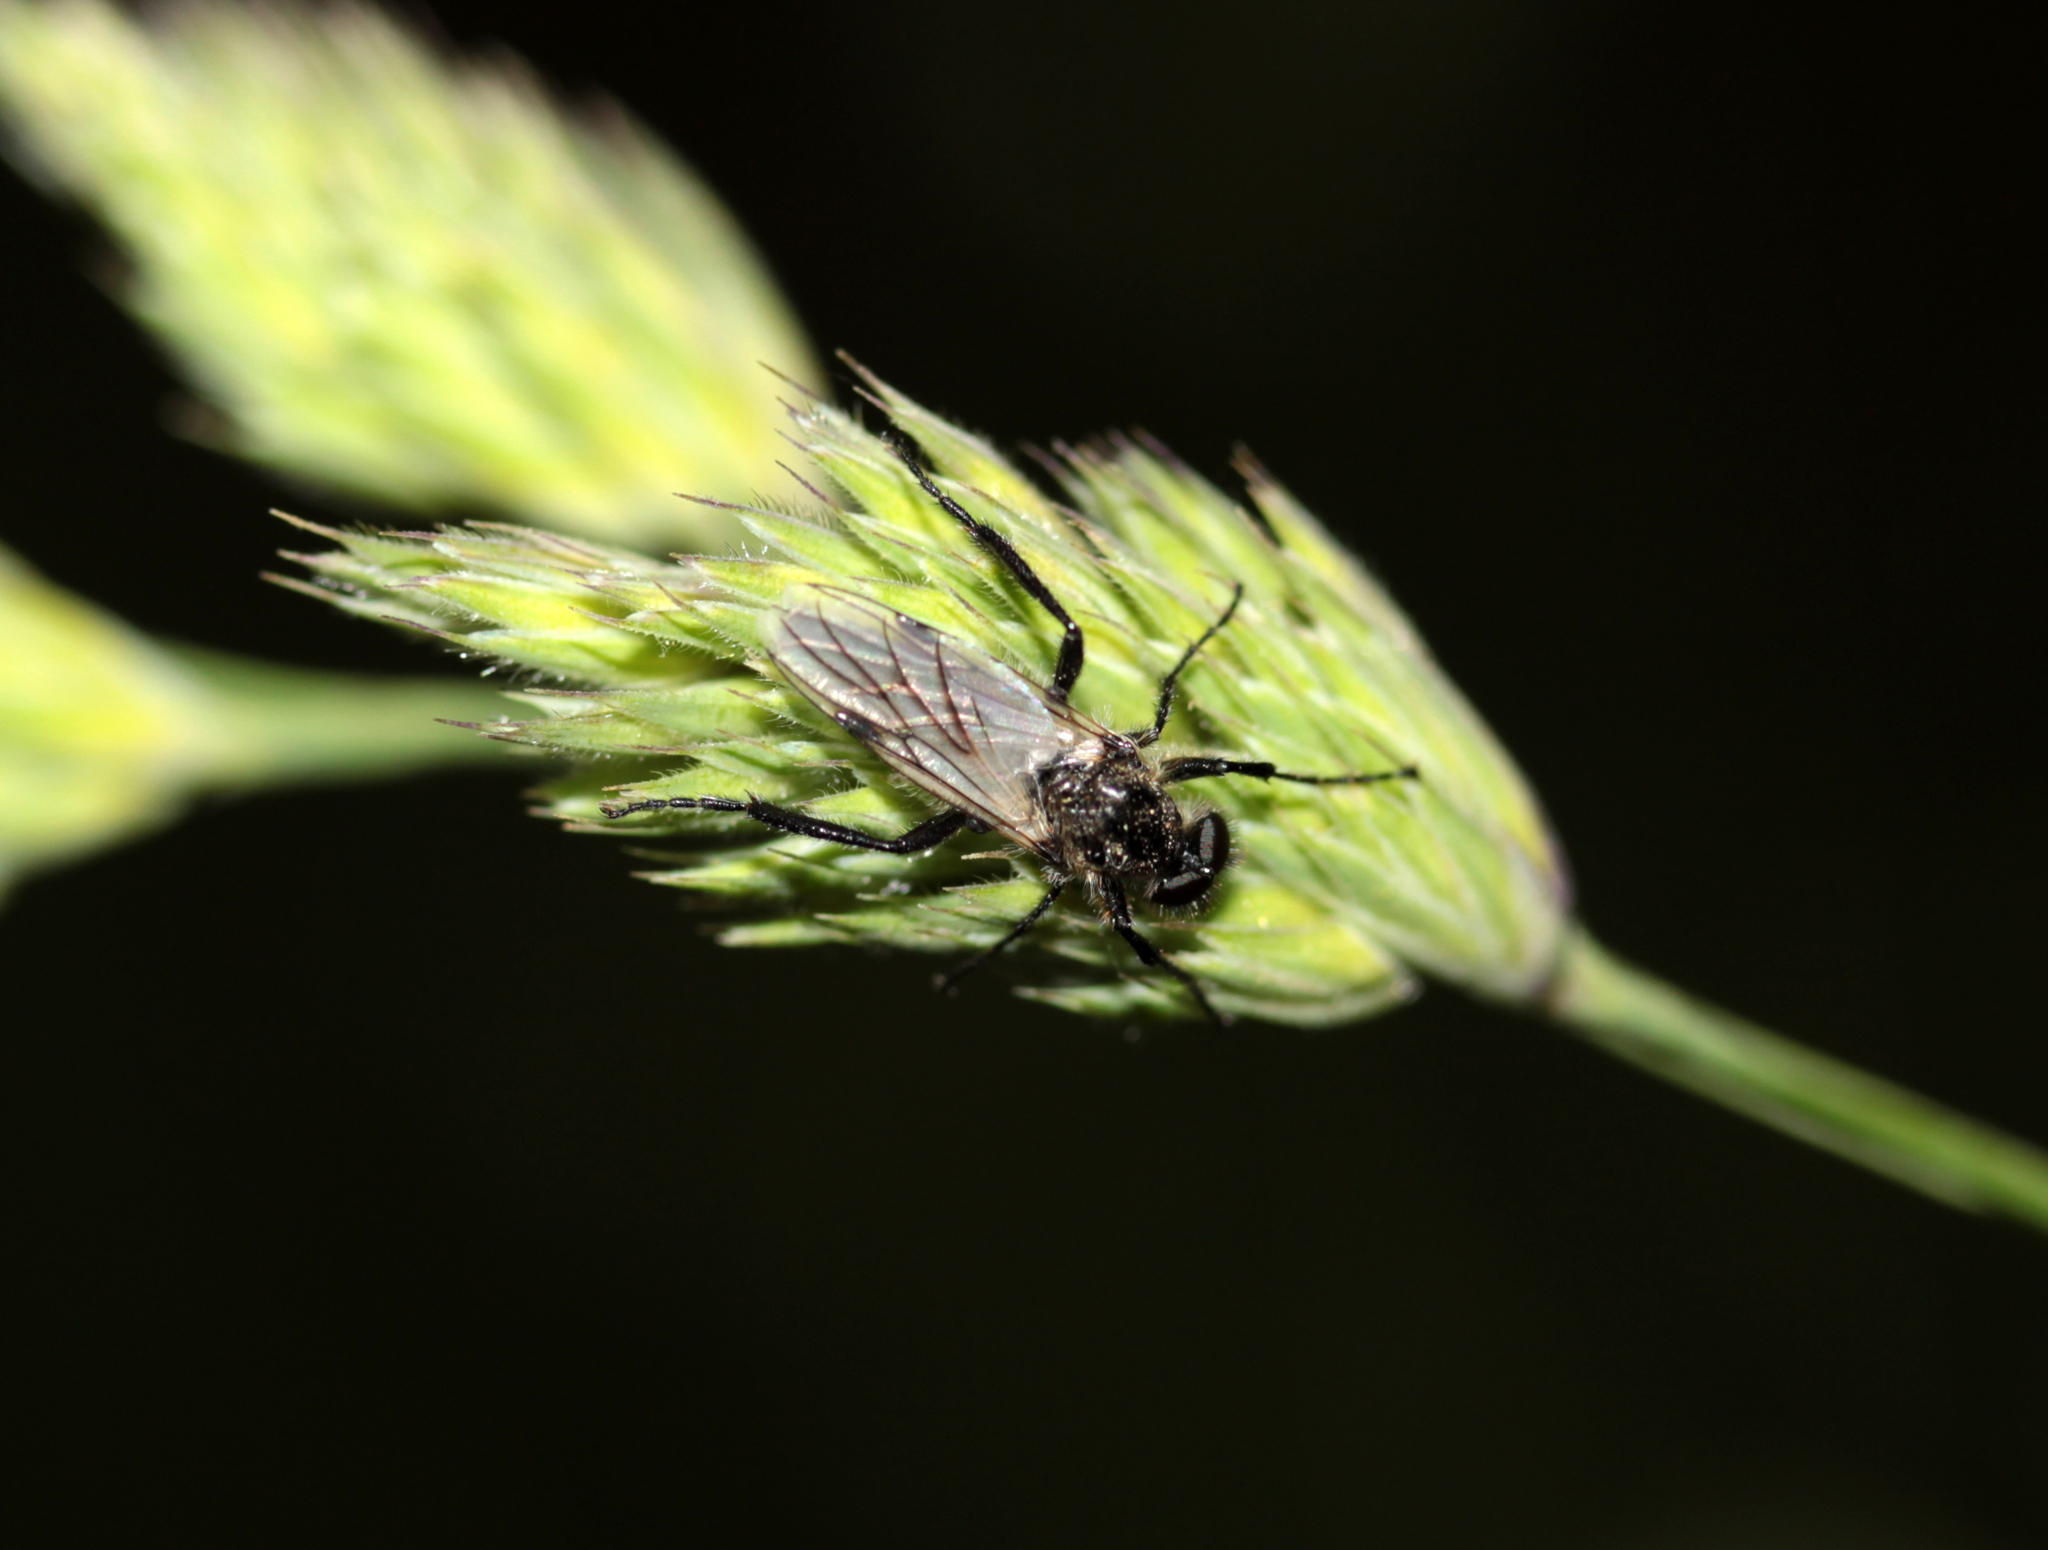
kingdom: Animalia
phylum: Arthropoda
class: Insecta
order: Diptera
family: Bibionidae
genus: Bibio
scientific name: Bibio albipennis
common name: White-winged march fly
